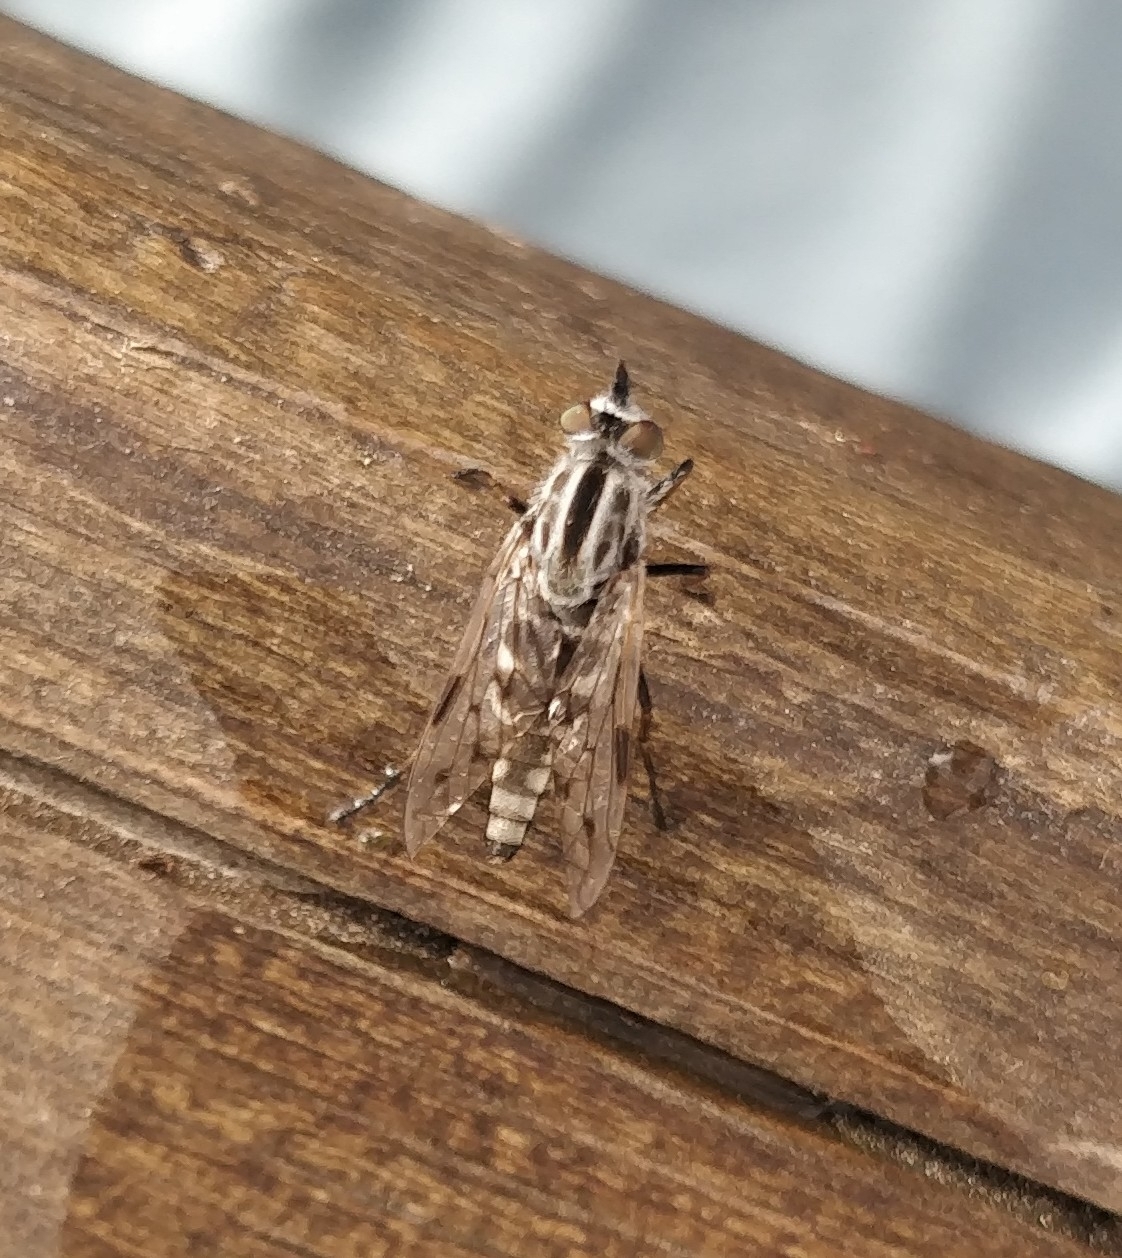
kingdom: Animalia
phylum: Arthropoda
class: Insecta
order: Diptera
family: Therevidae
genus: Irwiniella
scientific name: Irwiniella frontata
